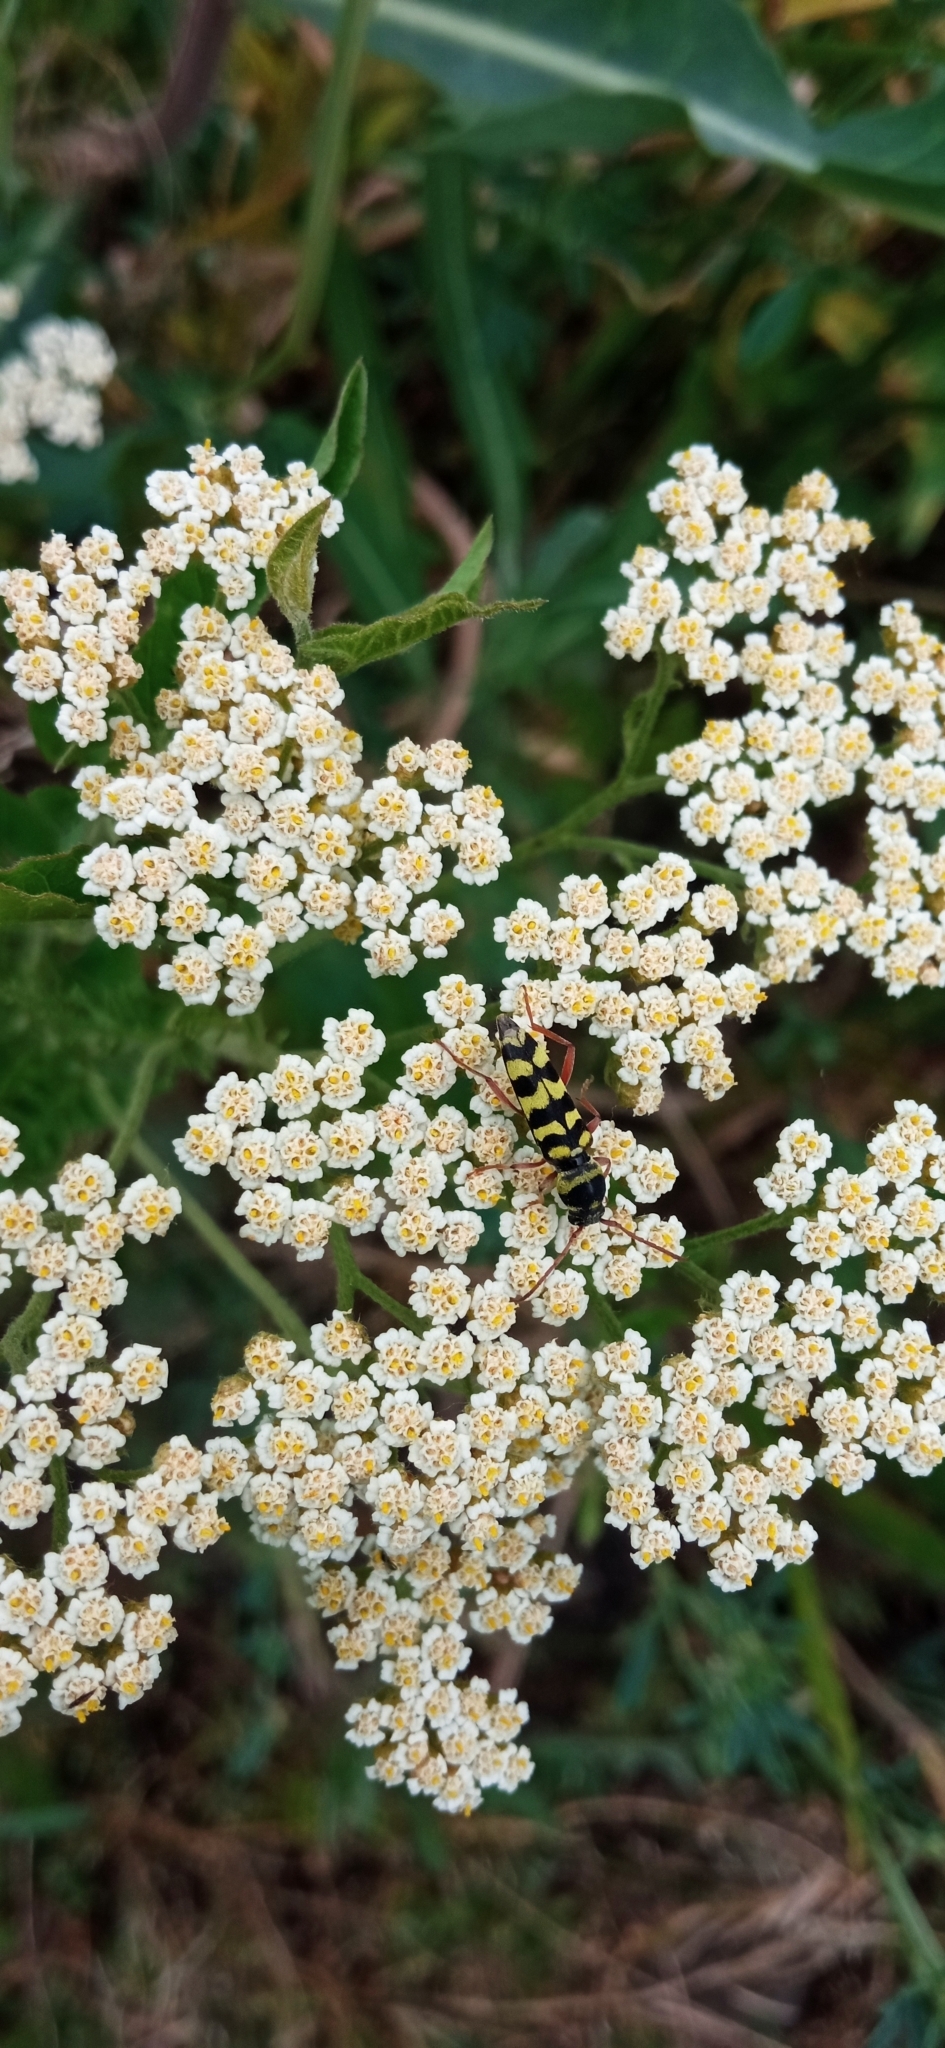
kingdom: Animalia
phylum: Arthropoda
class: Insecta
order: Coleoptera
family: Cerambycidae
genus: Plagionotus
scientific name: Plagionotus floralis
